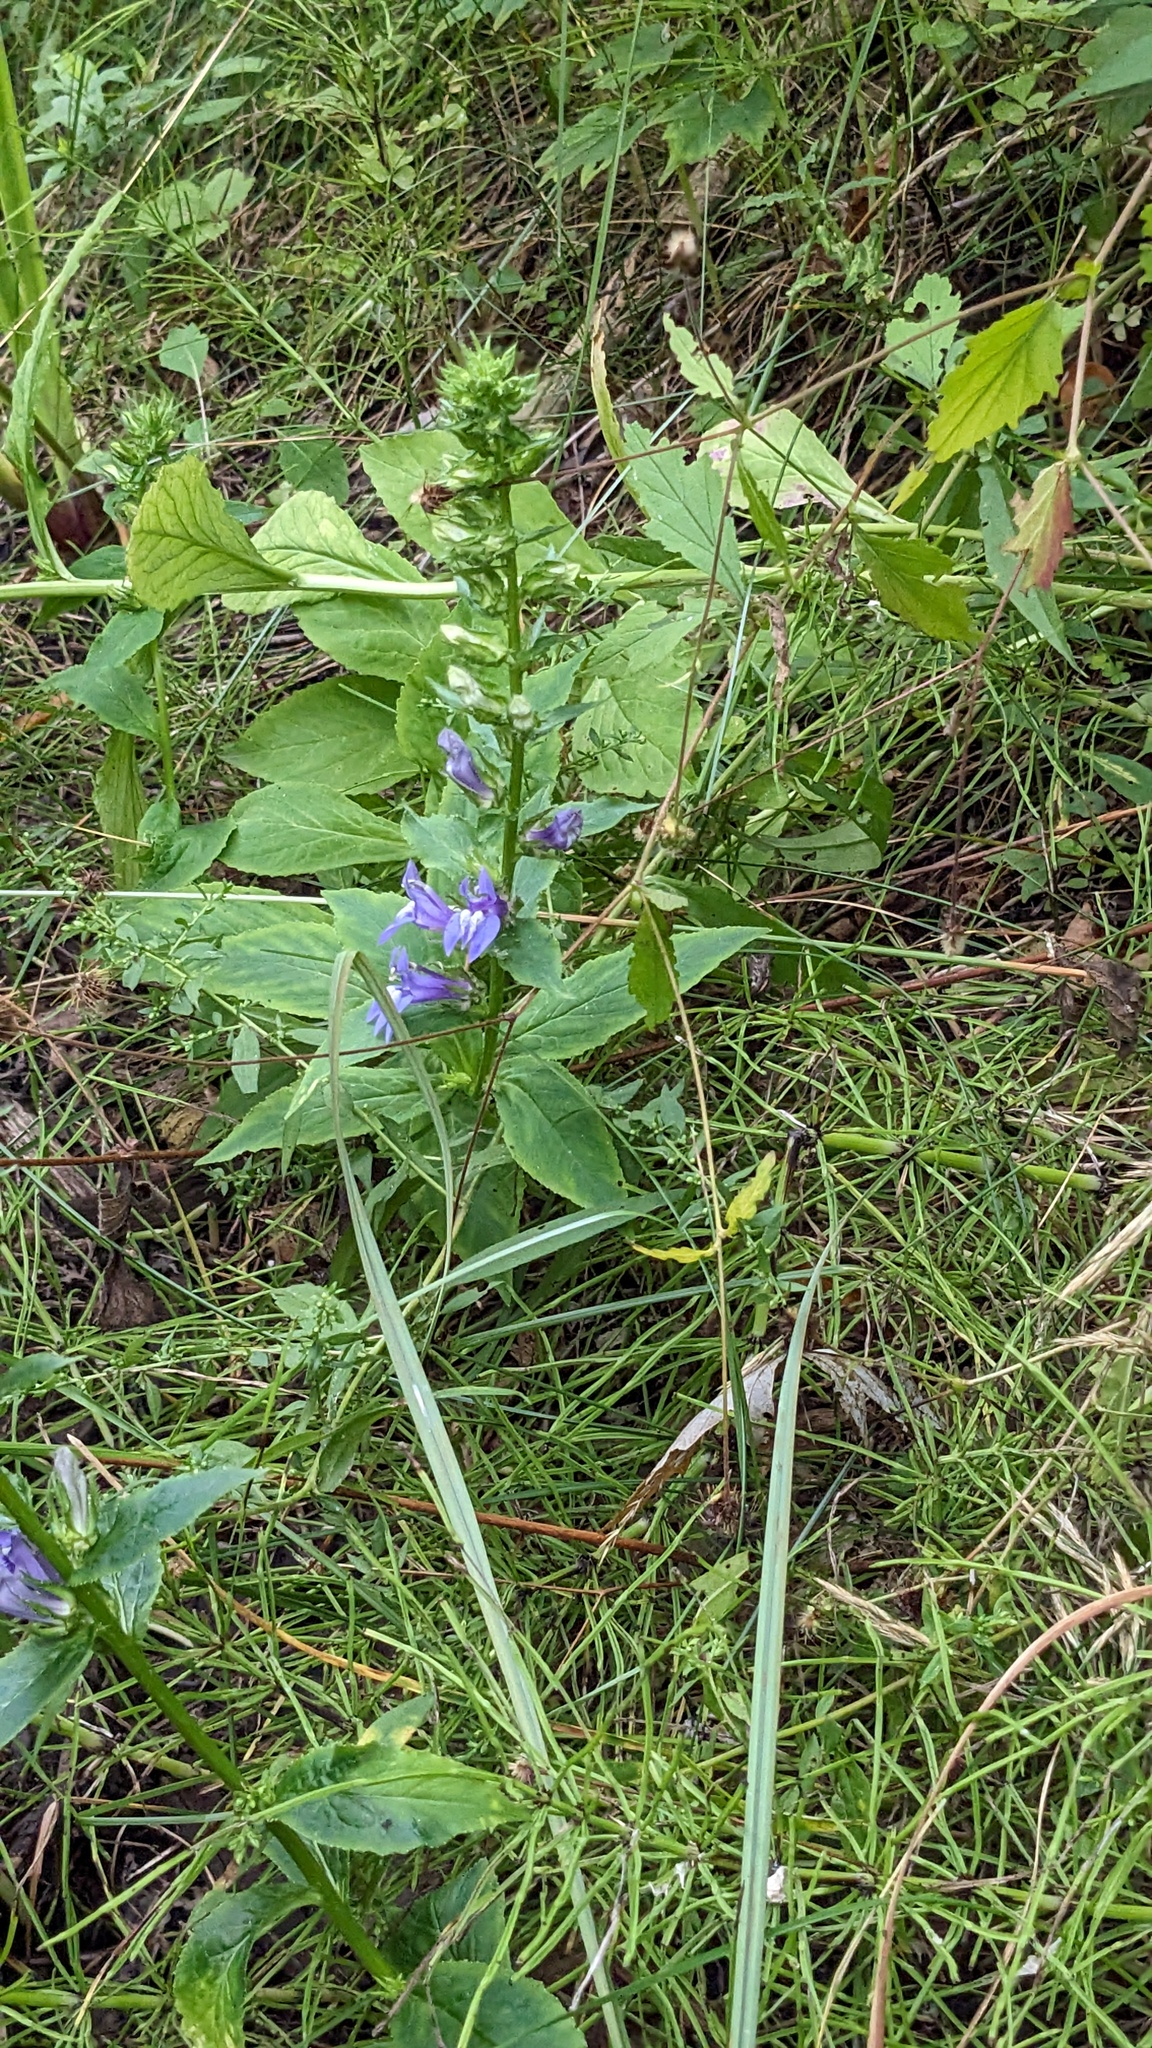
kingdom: Plantae
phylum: Tracheophyta
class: Magnoliopsida
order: Asterales
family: Campanulaceae
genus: Lobelia
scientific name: Lobelia siphilitica
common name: Great lobelia
